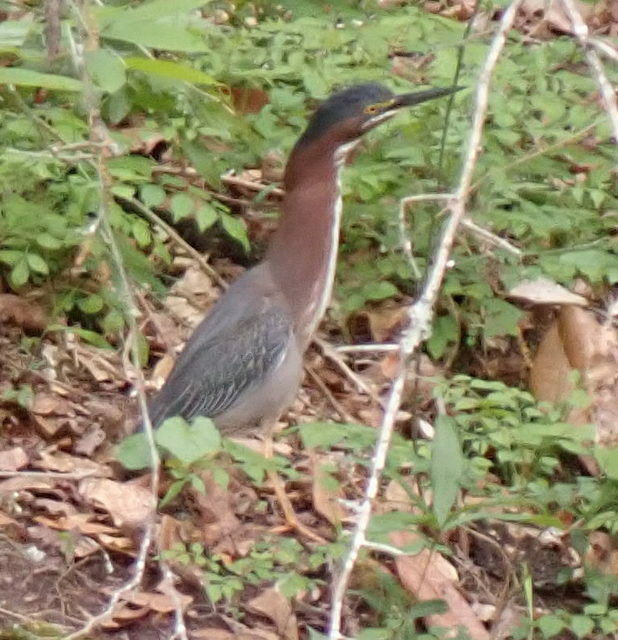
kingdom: Animalia
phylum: Chordata
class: Aves
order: Pelecaniformes
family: Ardeidae
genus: Butorides
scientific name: Butorides virescens
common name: Green heron
